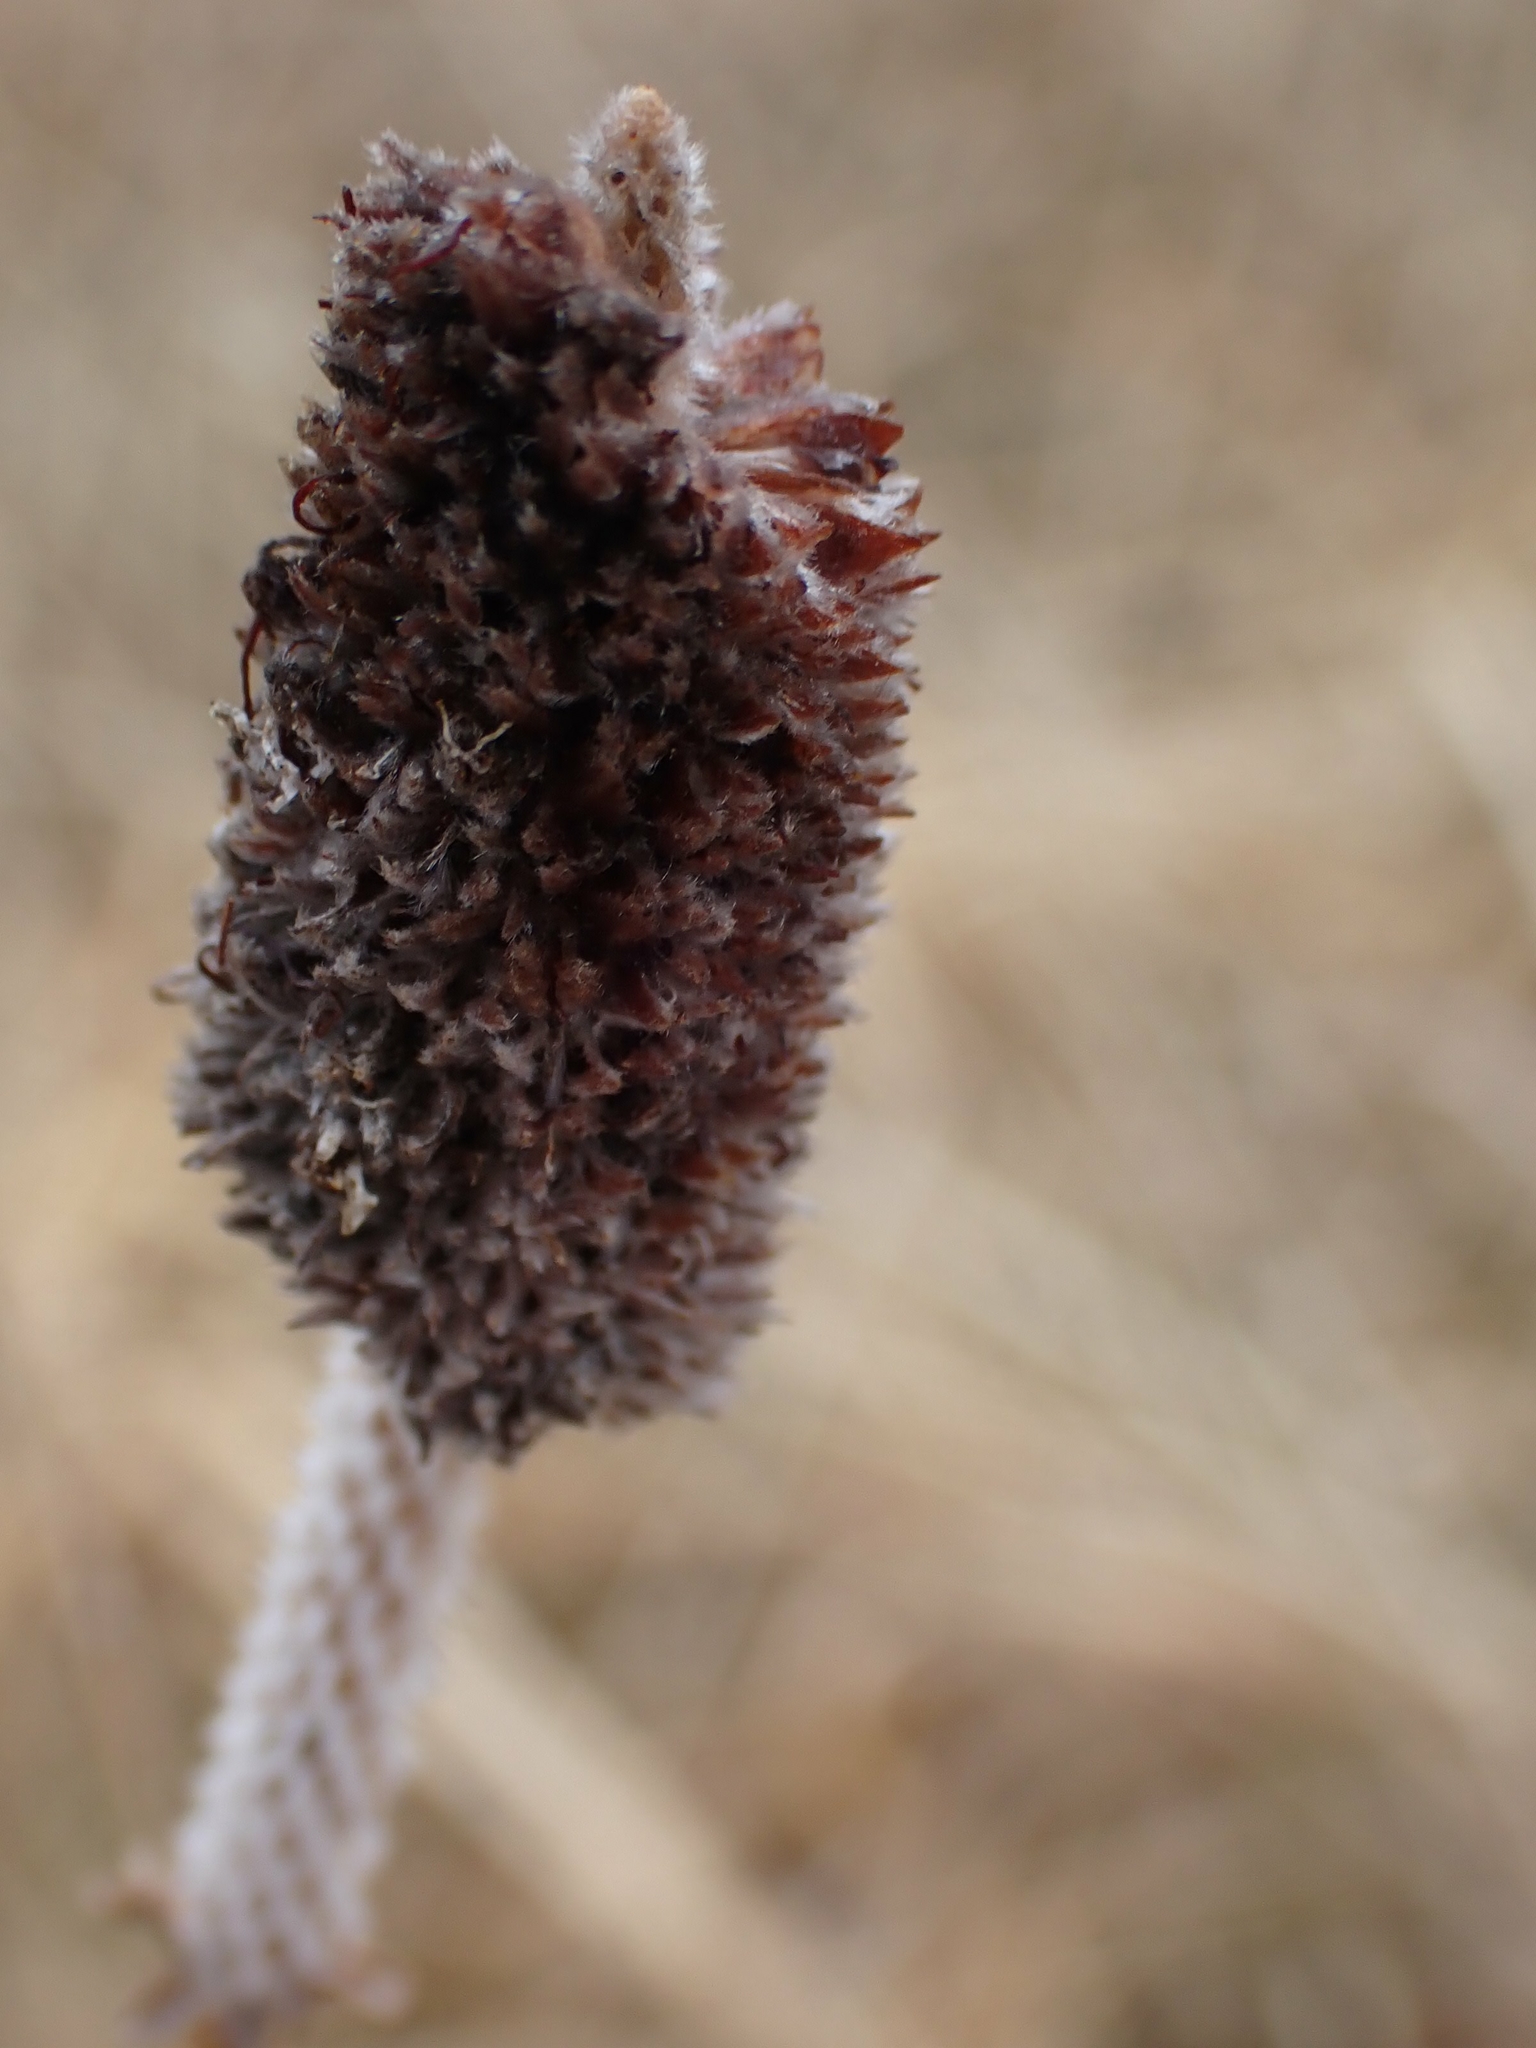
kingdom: Plantae
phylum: Tracheophyta
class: Magnoliopsida
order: Fabales
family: Fabaceae
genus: Dalea
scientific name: Dalea candida
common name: White prairie-clover
